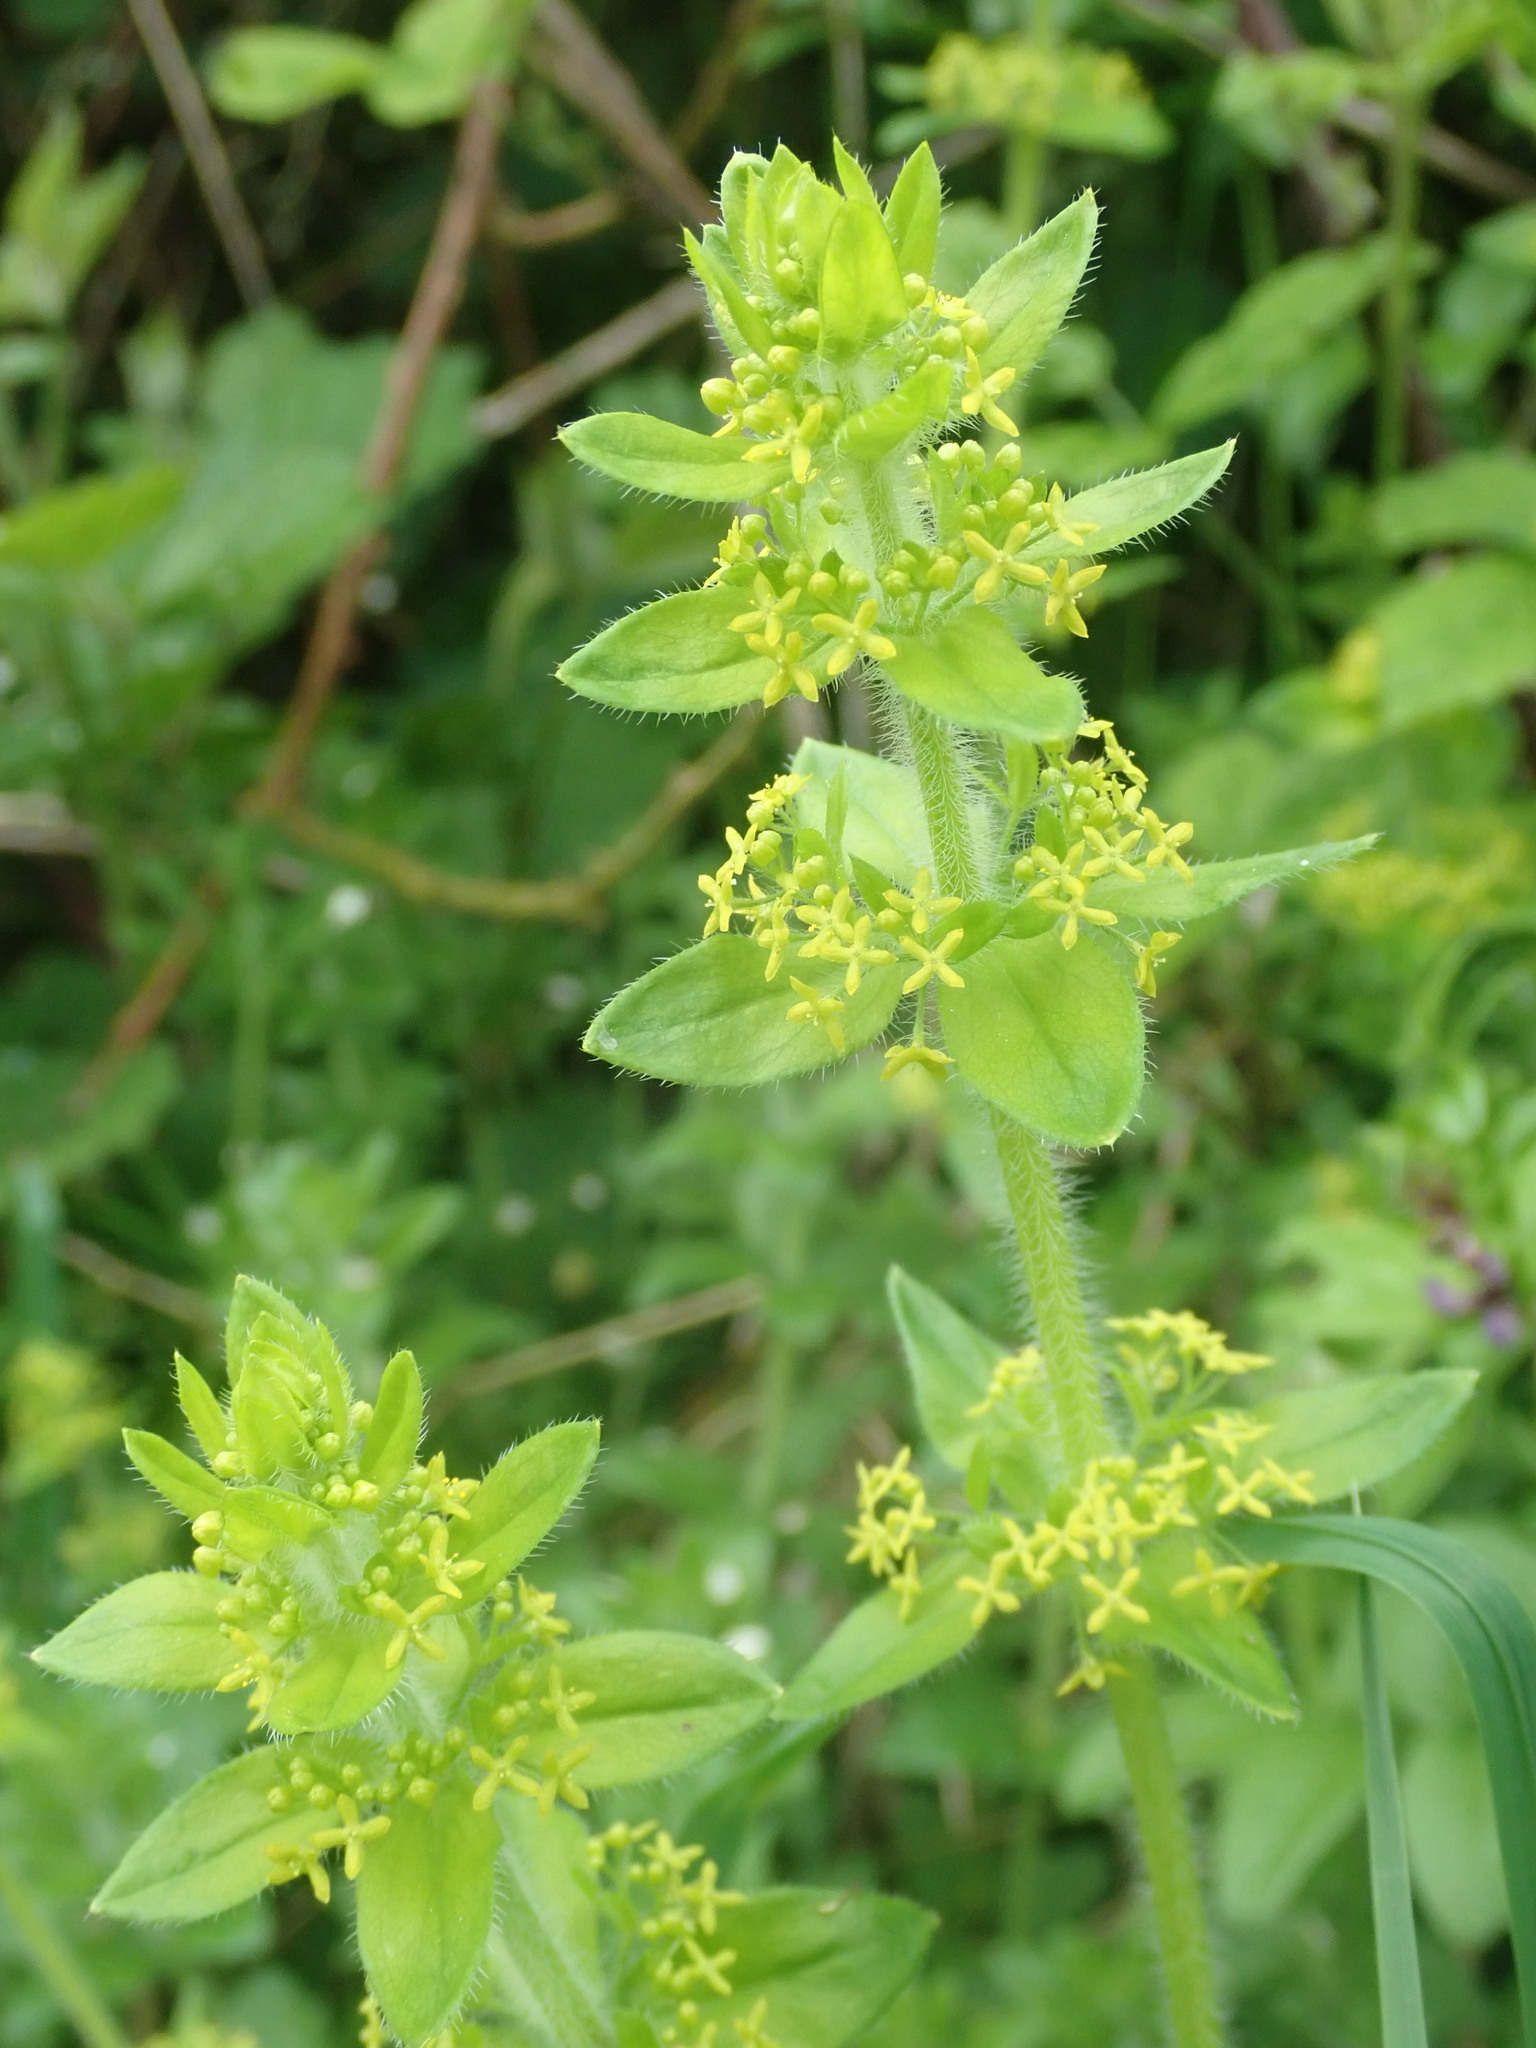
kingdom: Plantae
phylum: Tracheophyta
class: Magnoliopsida
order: Gentianales
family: Rubiaceae
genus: Cruciata
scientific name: Cruciata laevipes
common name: Crosswort
